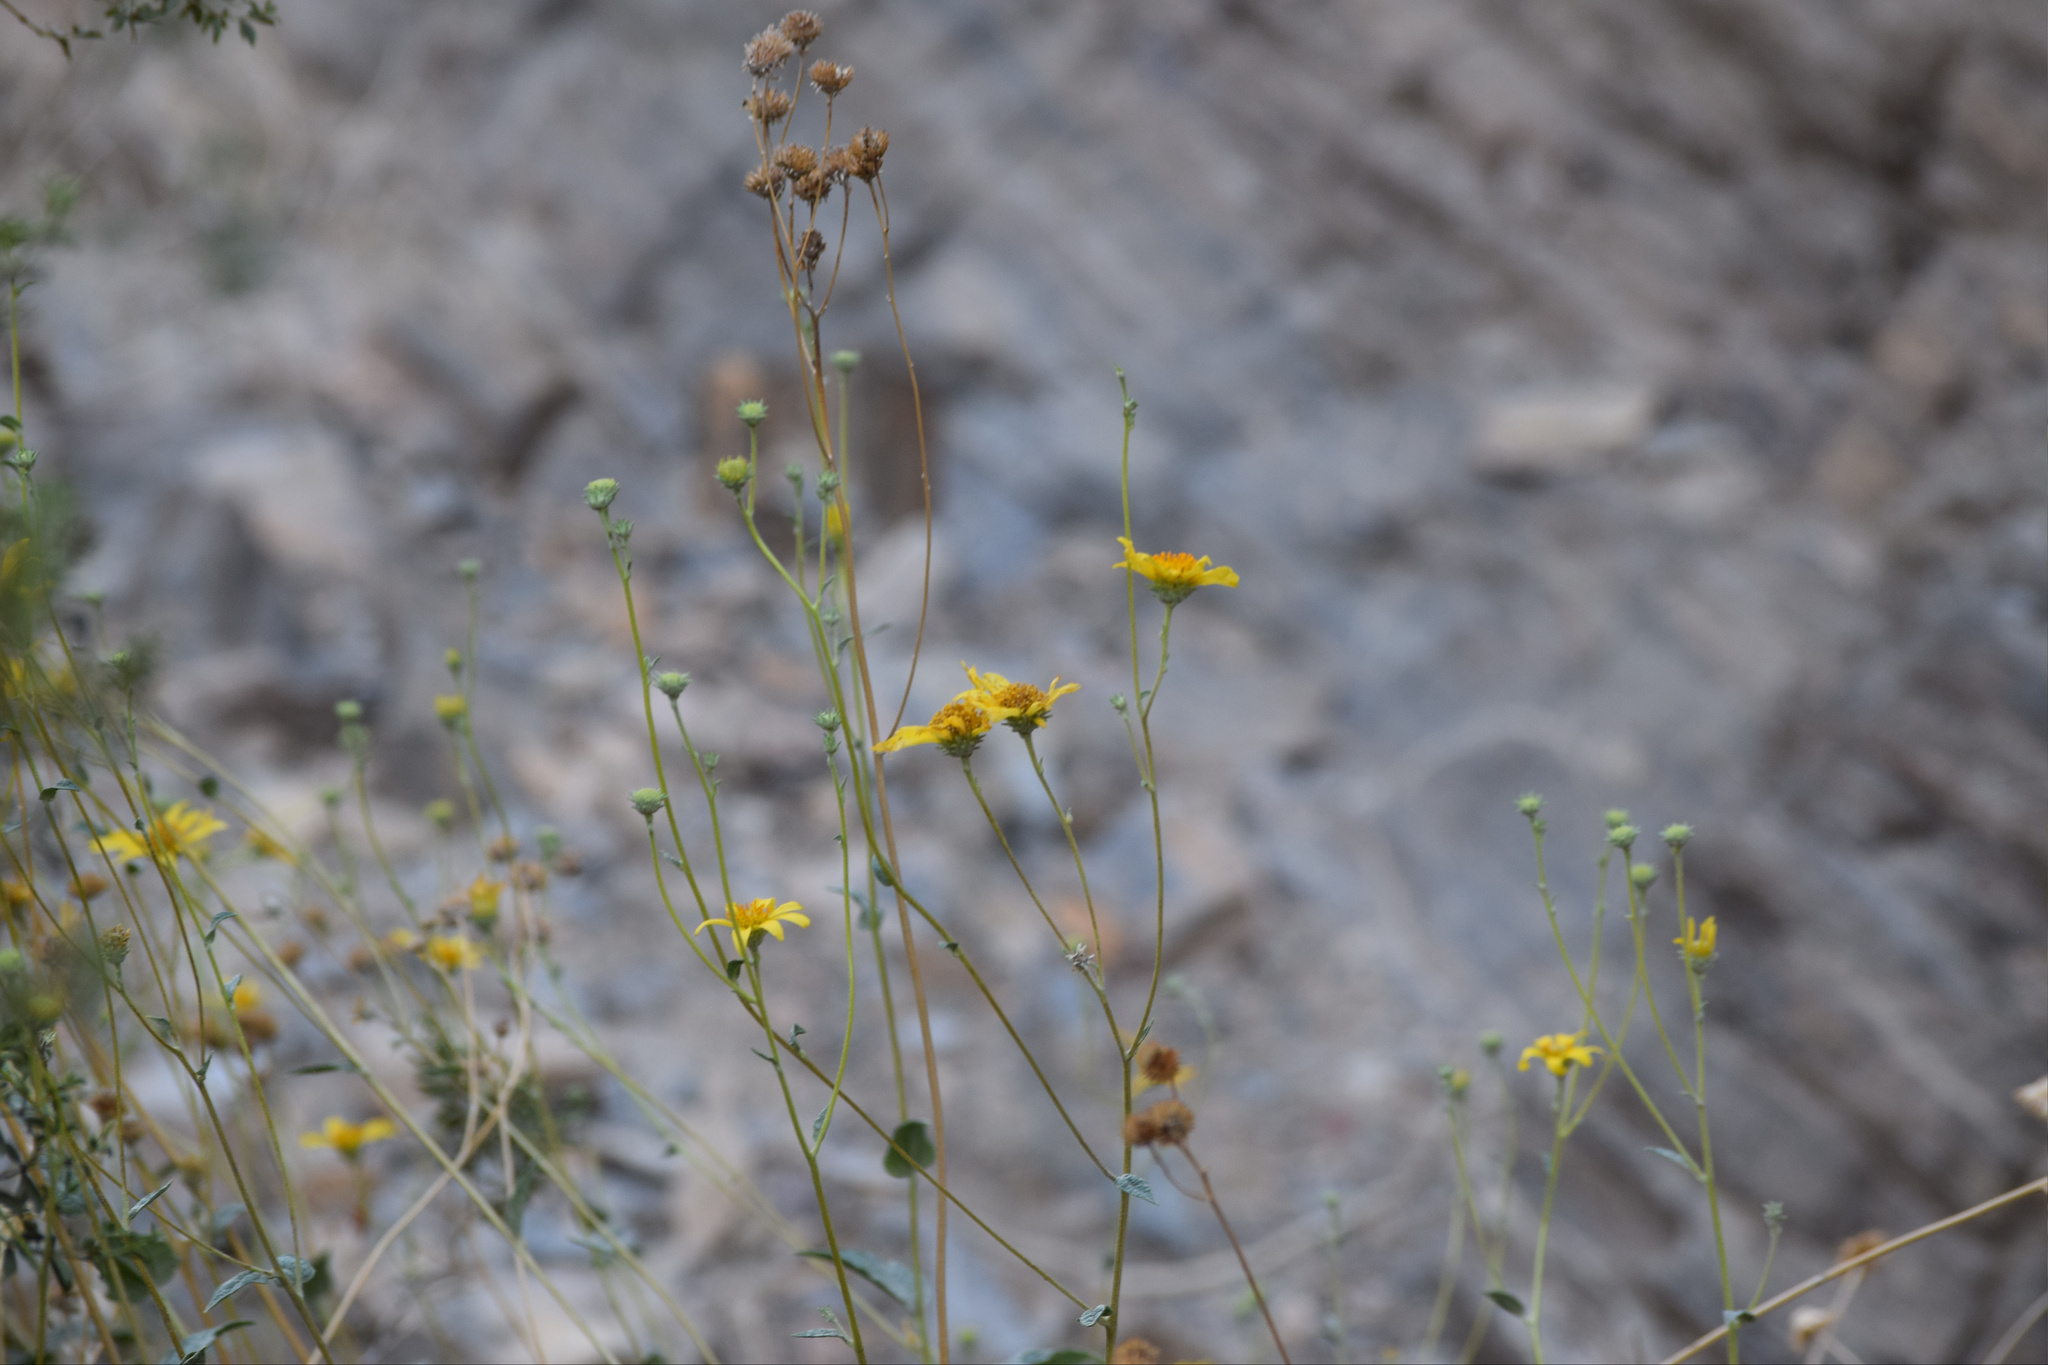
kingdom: Plantae
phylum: Tracheophyta
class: Magnoliopsida
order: Asterales
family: Asteraceae
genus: Bahiopsis
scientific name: Bahiopsis reticulata
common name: Death valley goldeneye
